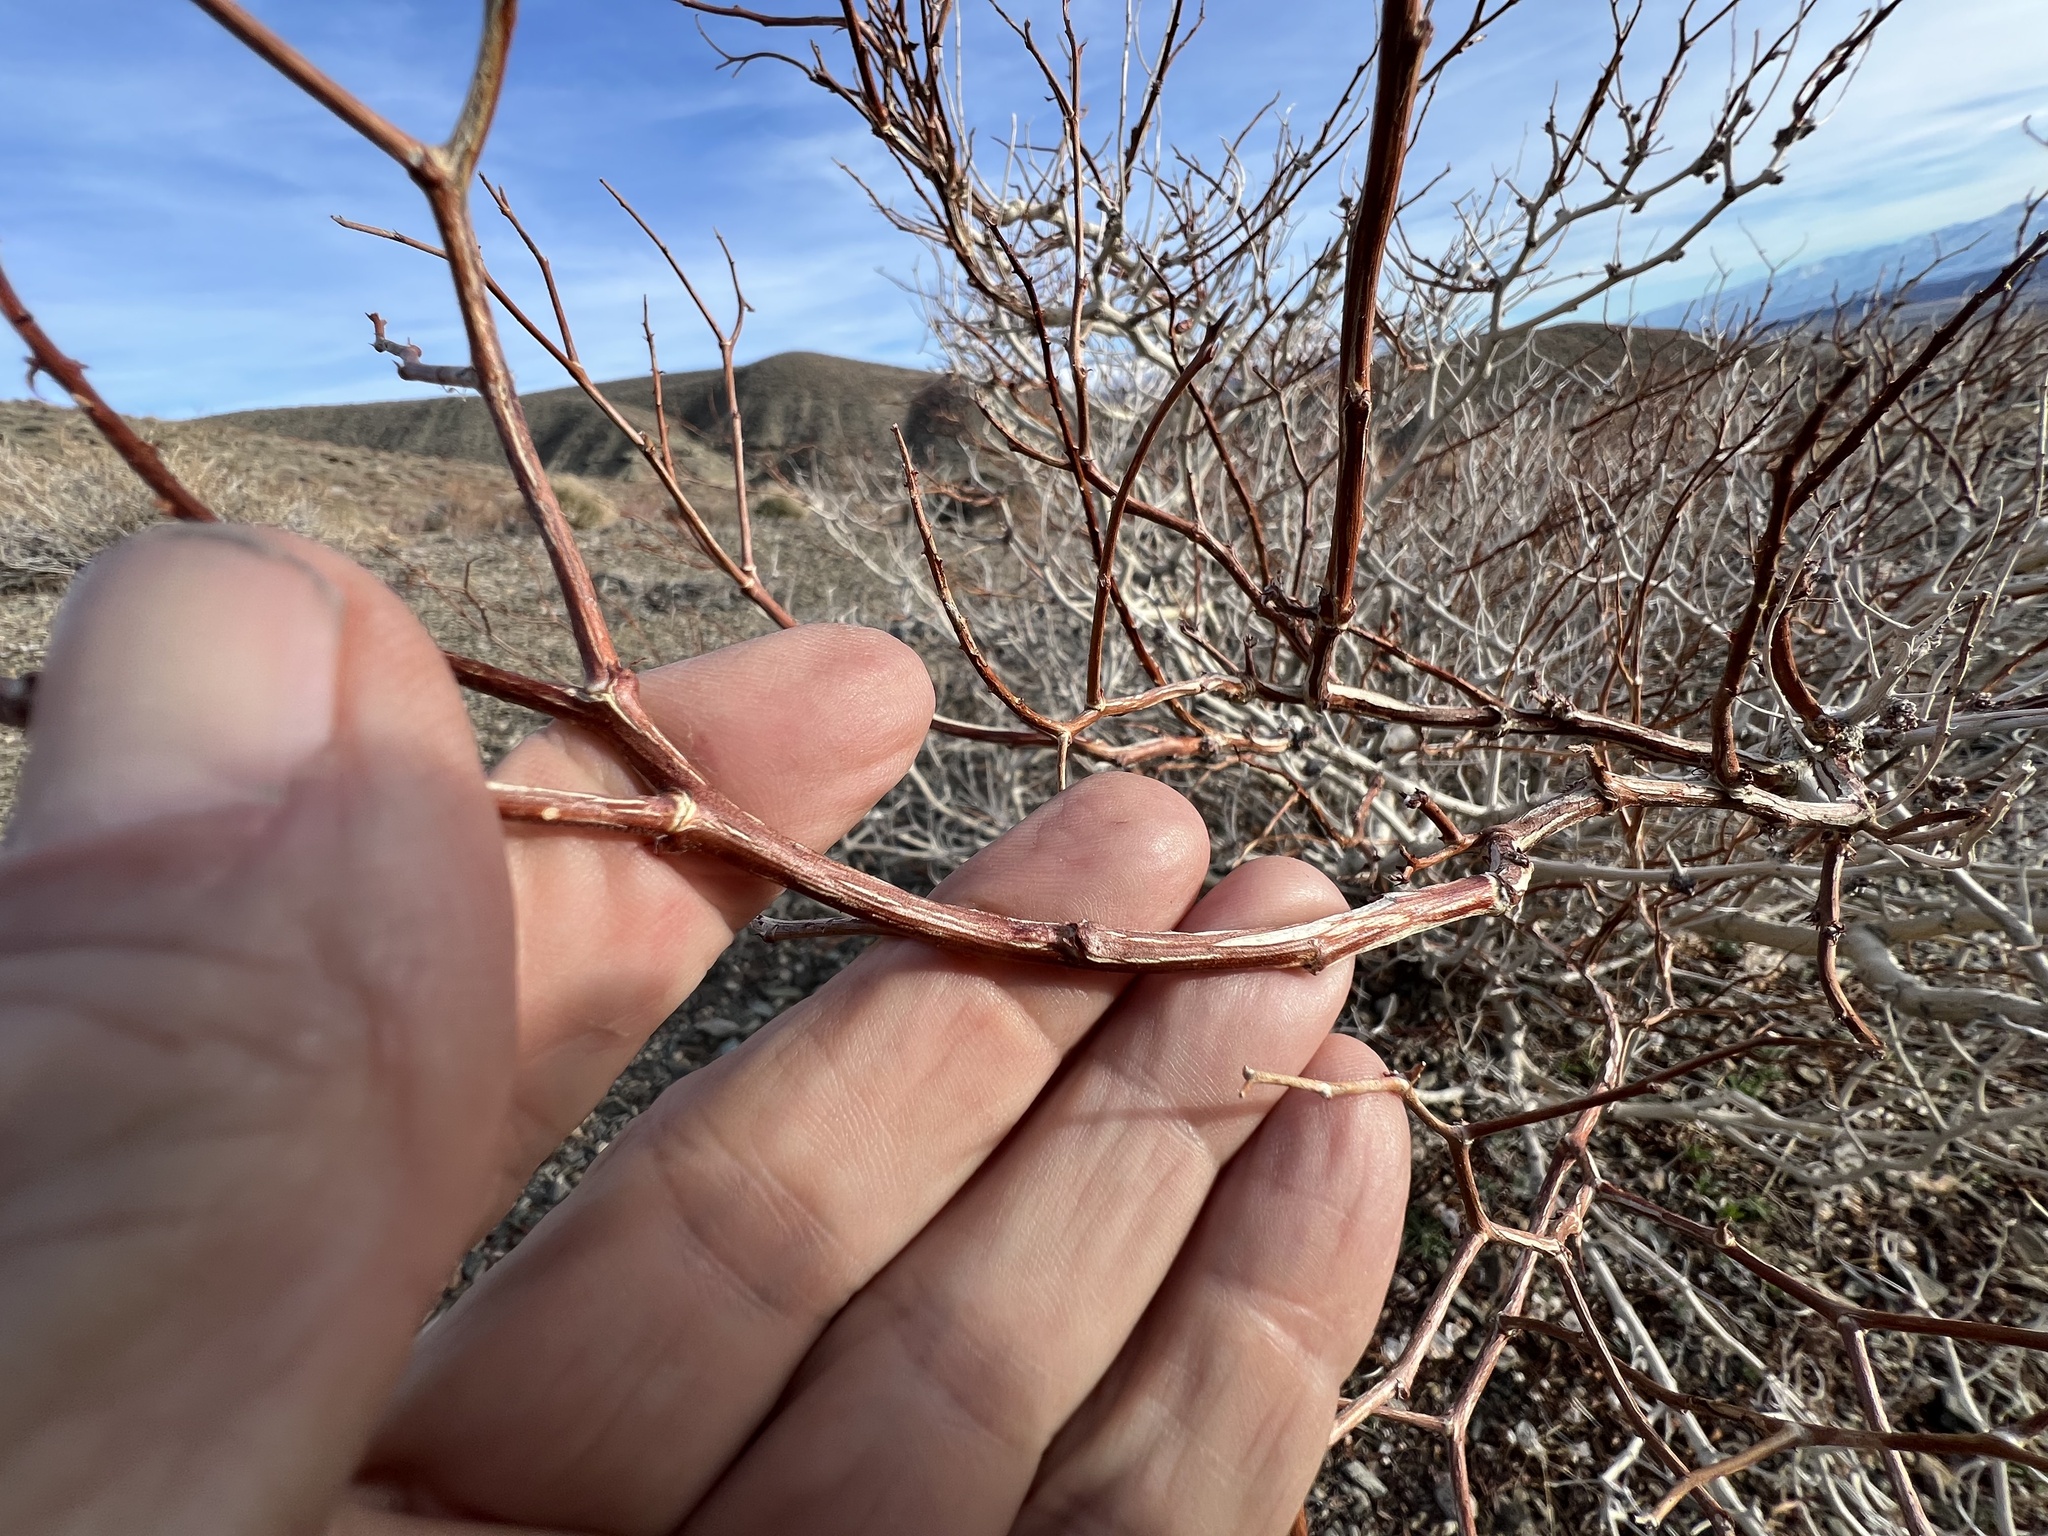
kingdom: Plantae
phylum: Tracheophyta
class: Magnoliopsida
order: Fabales
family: Fabaceae
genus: Psorothamnus
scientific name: Psorothamnus arborescens
